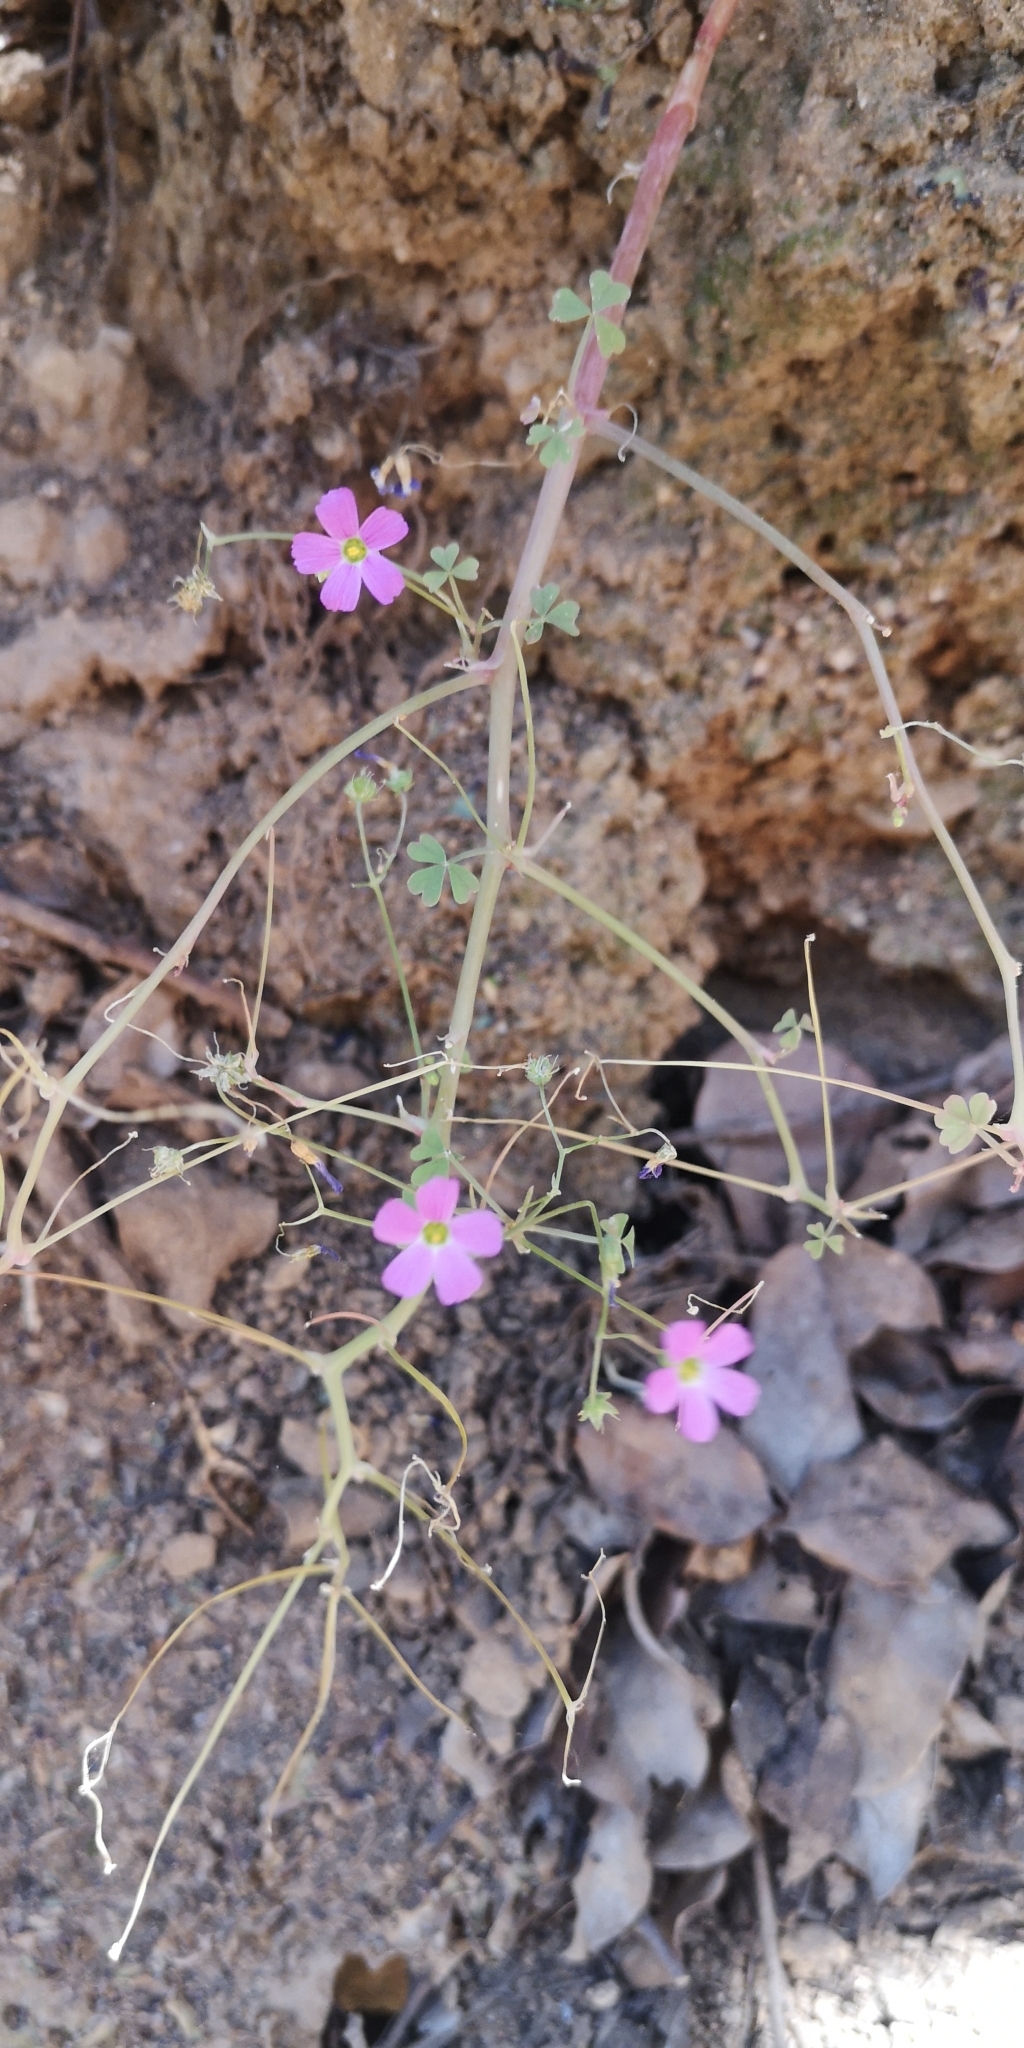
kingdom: Plantae
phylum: Tracheophyta
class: Magnoliopsida
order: Oxalidales
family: Oxalidaceae
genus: Oxalis
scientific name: Oxalis rosea
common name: Annual pink-sorrel
